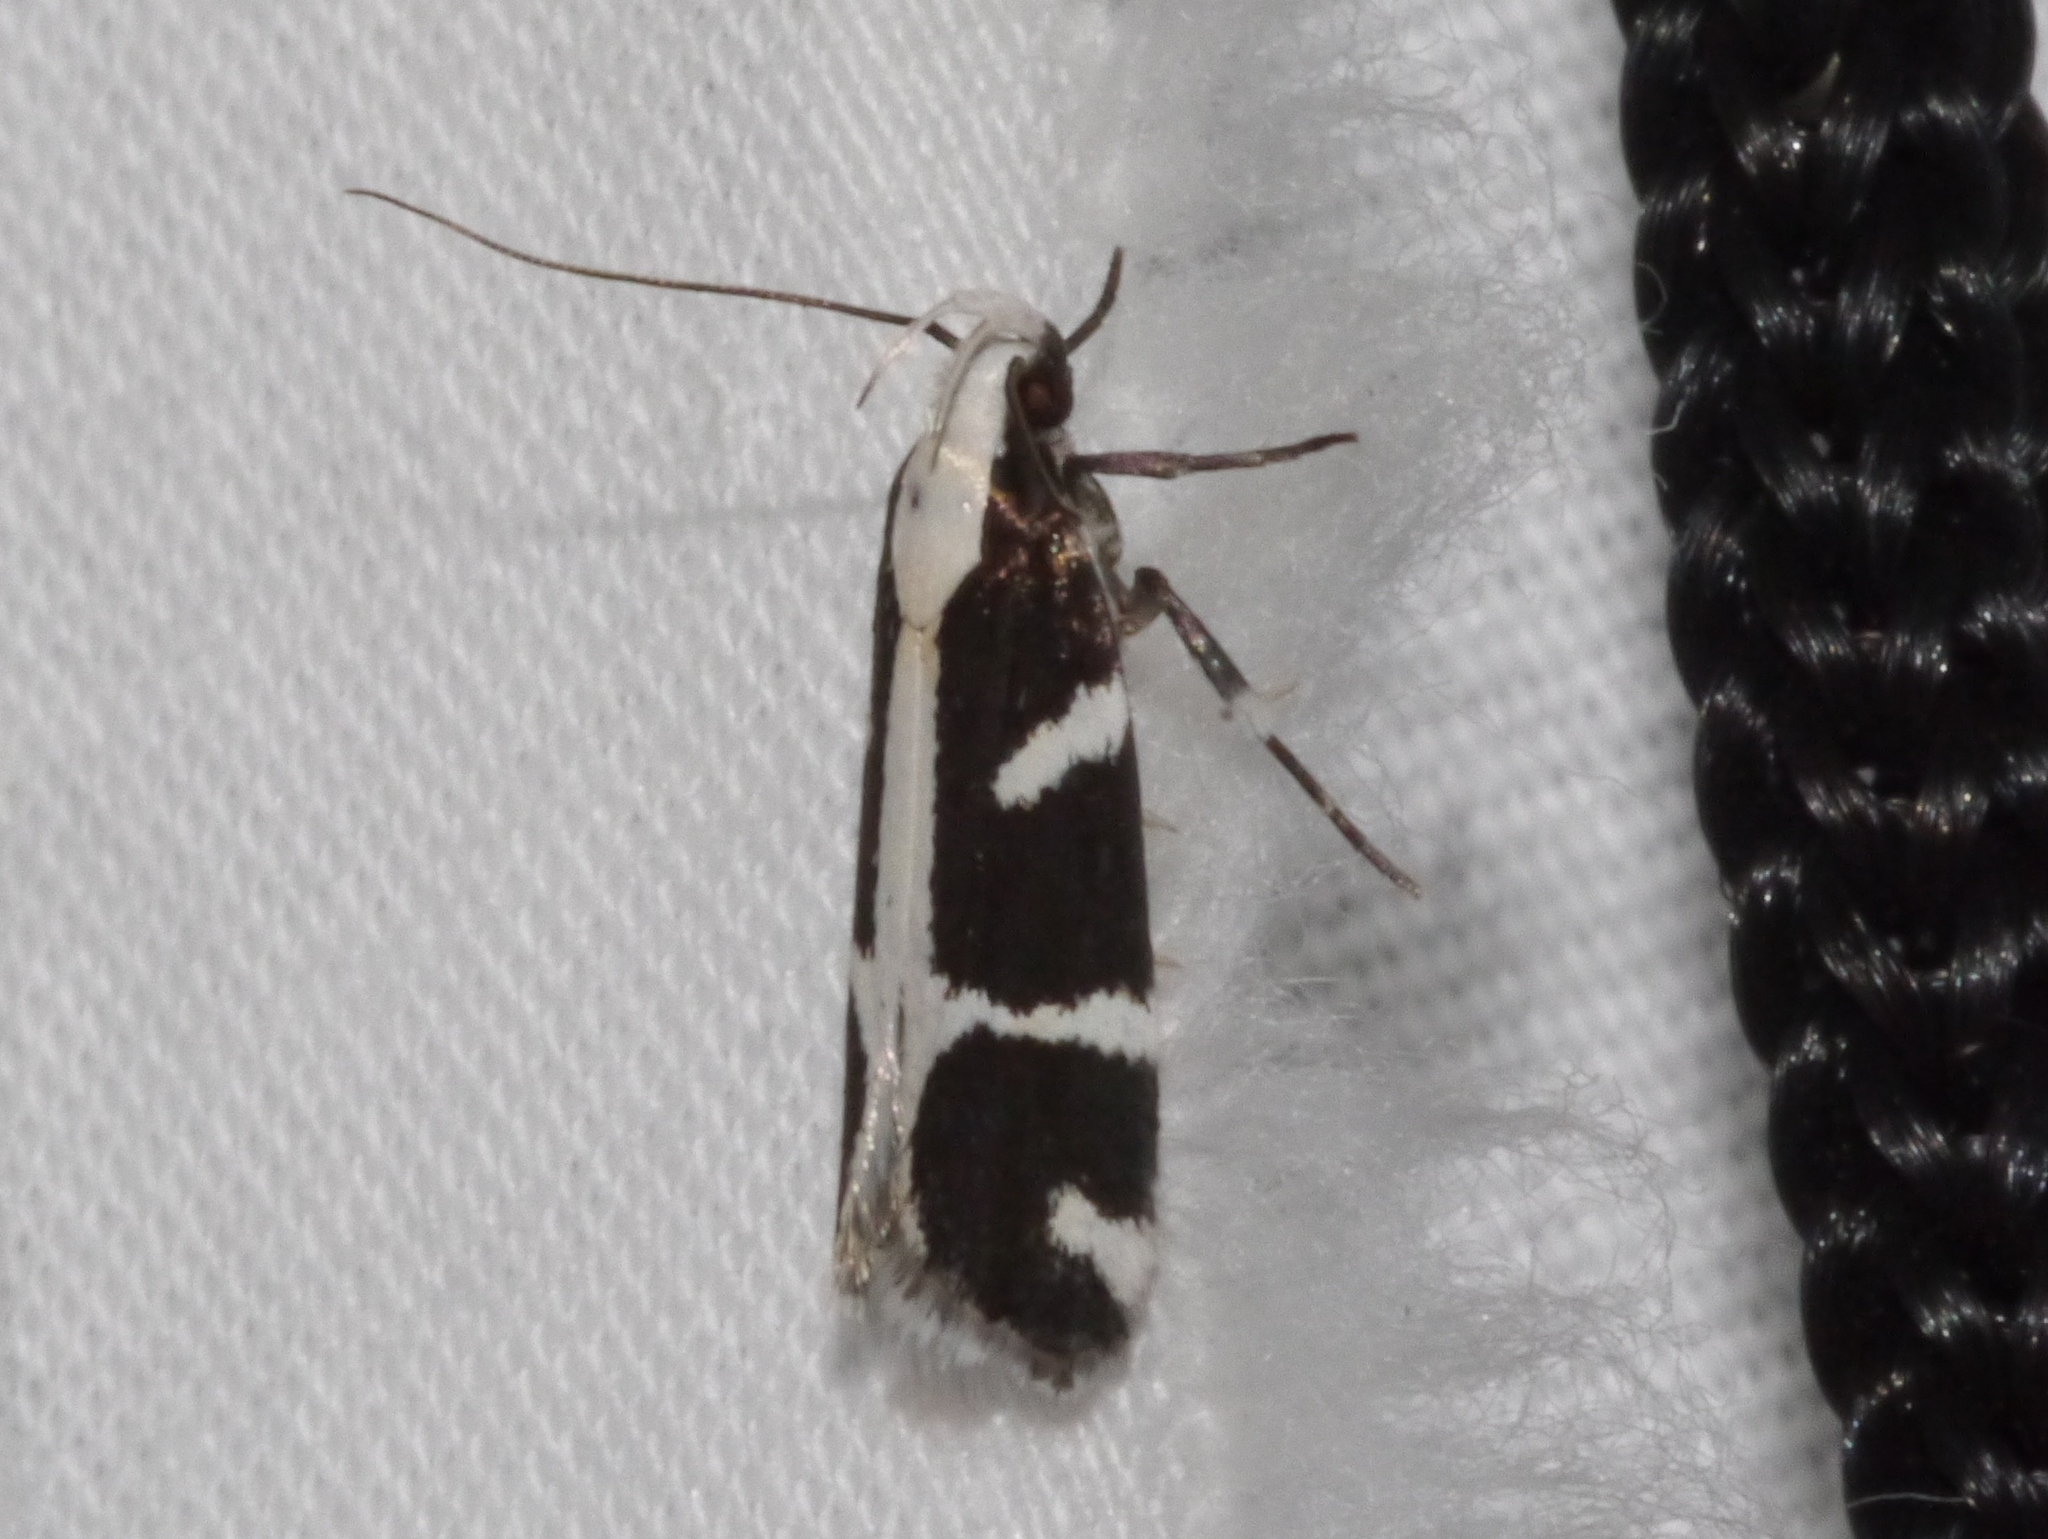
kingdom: Animalia
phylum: Arthropoda
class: Insecta
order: Lepidoptera
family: Gelechiidae
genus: Epilechia
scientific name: Epilechia catalinella
